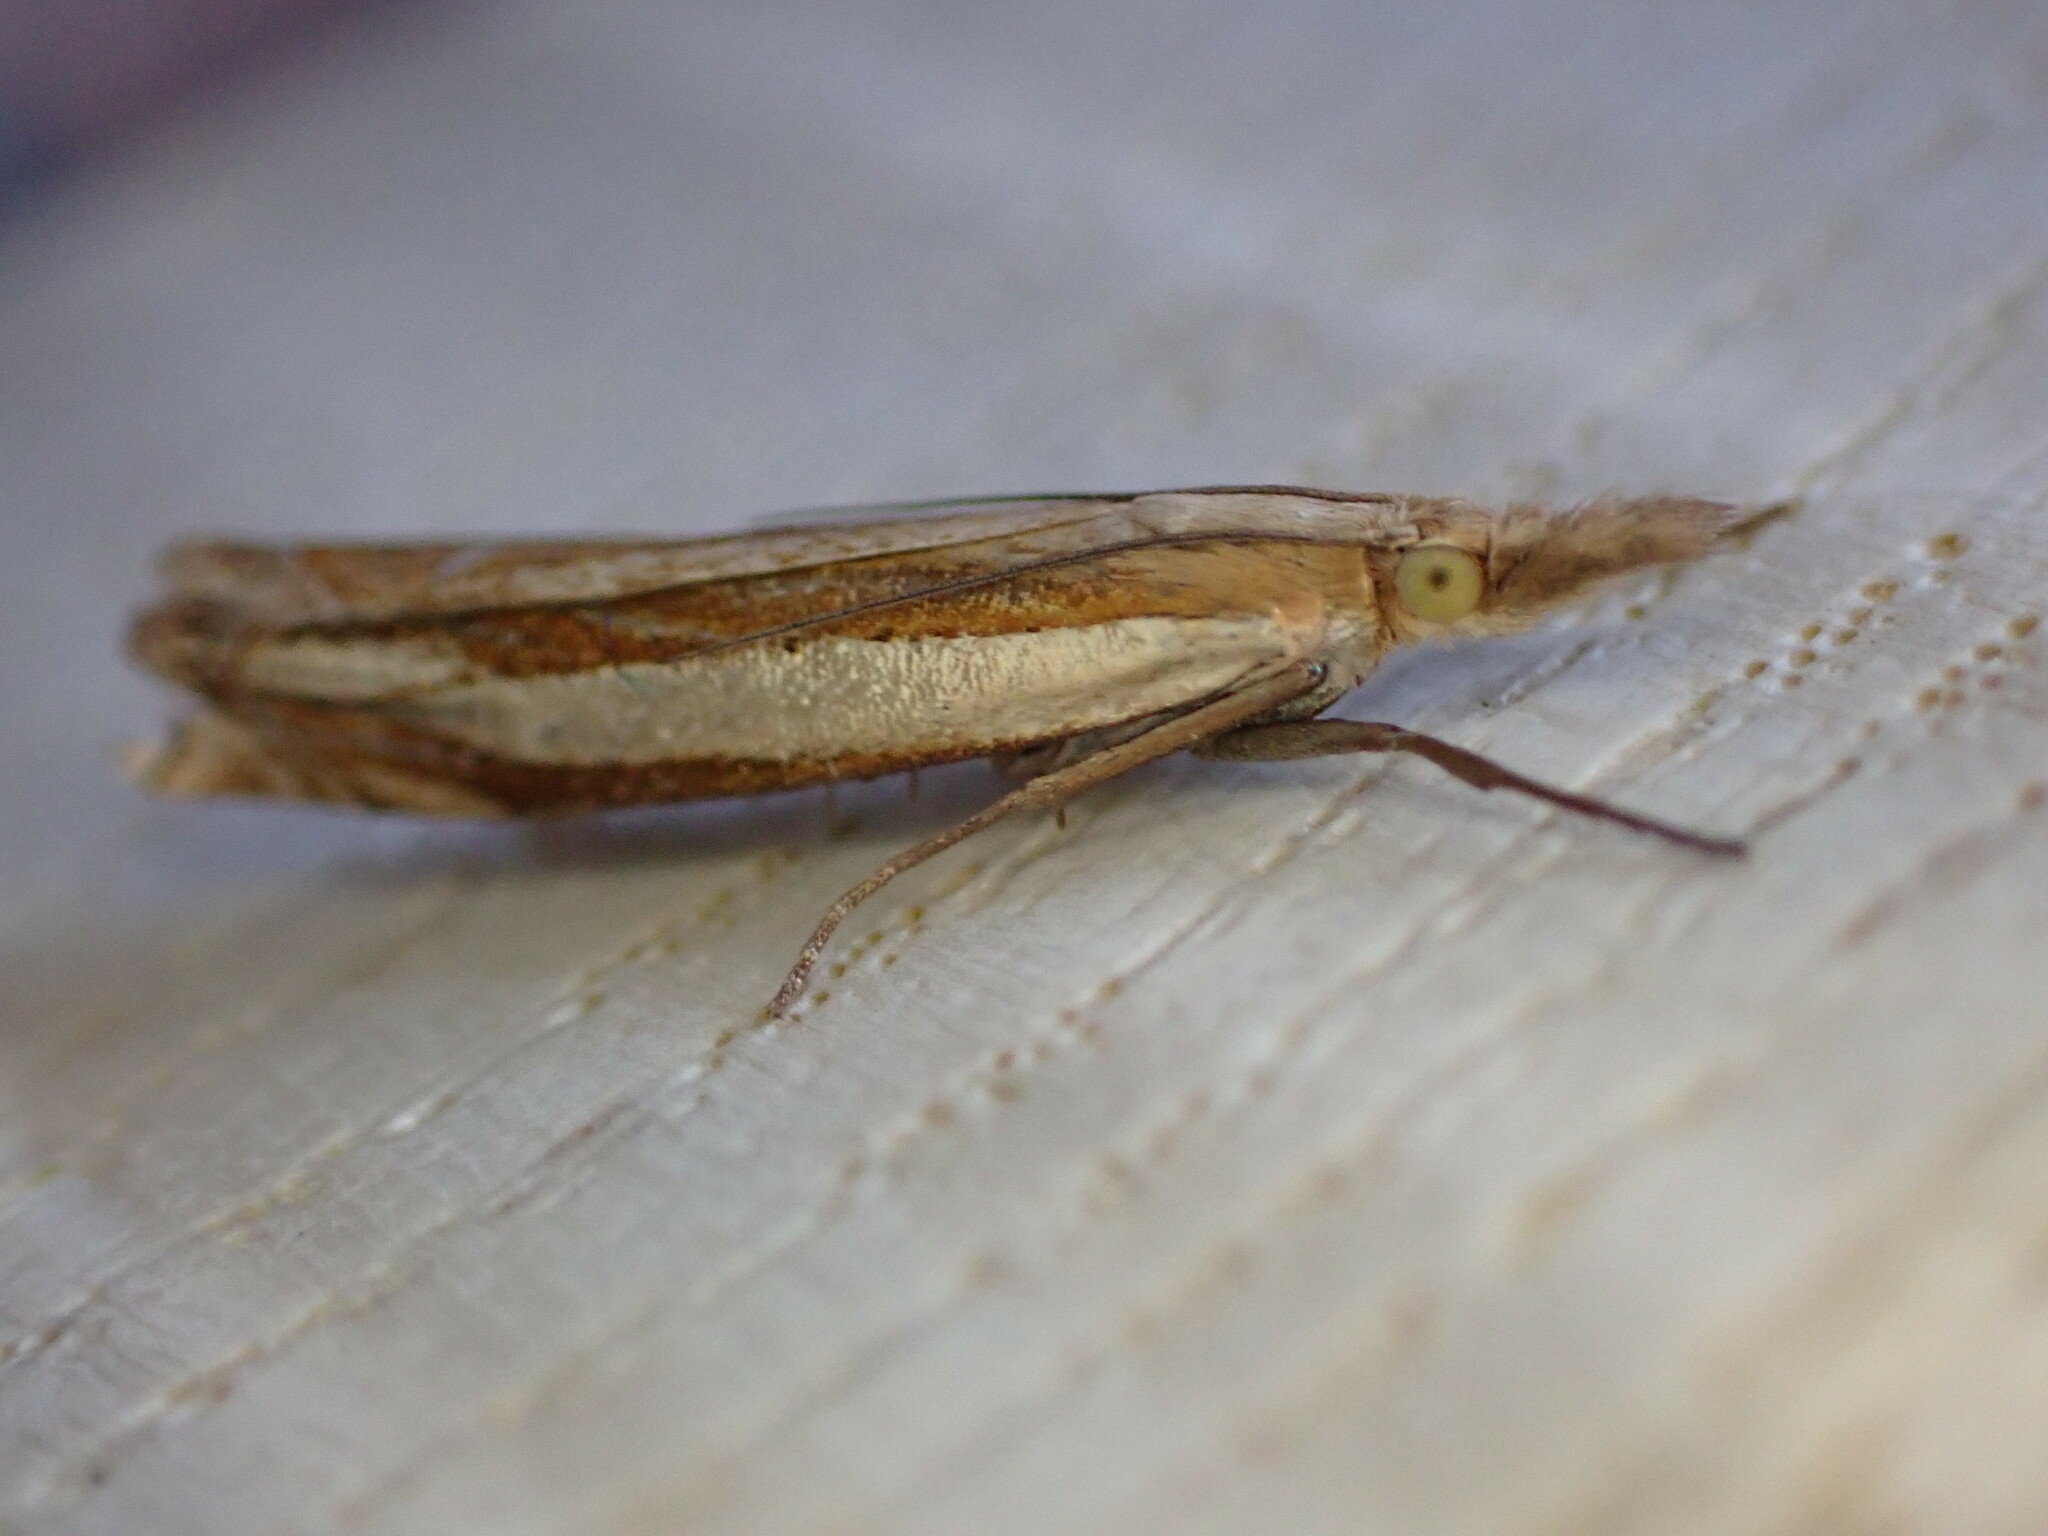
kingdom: Animalia
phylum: Arthropoda
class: Insecta
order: Lepidoptera
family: Crambidae
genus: Crambus
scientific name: Crambus pascuella
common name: Inlaid grass-veneer
